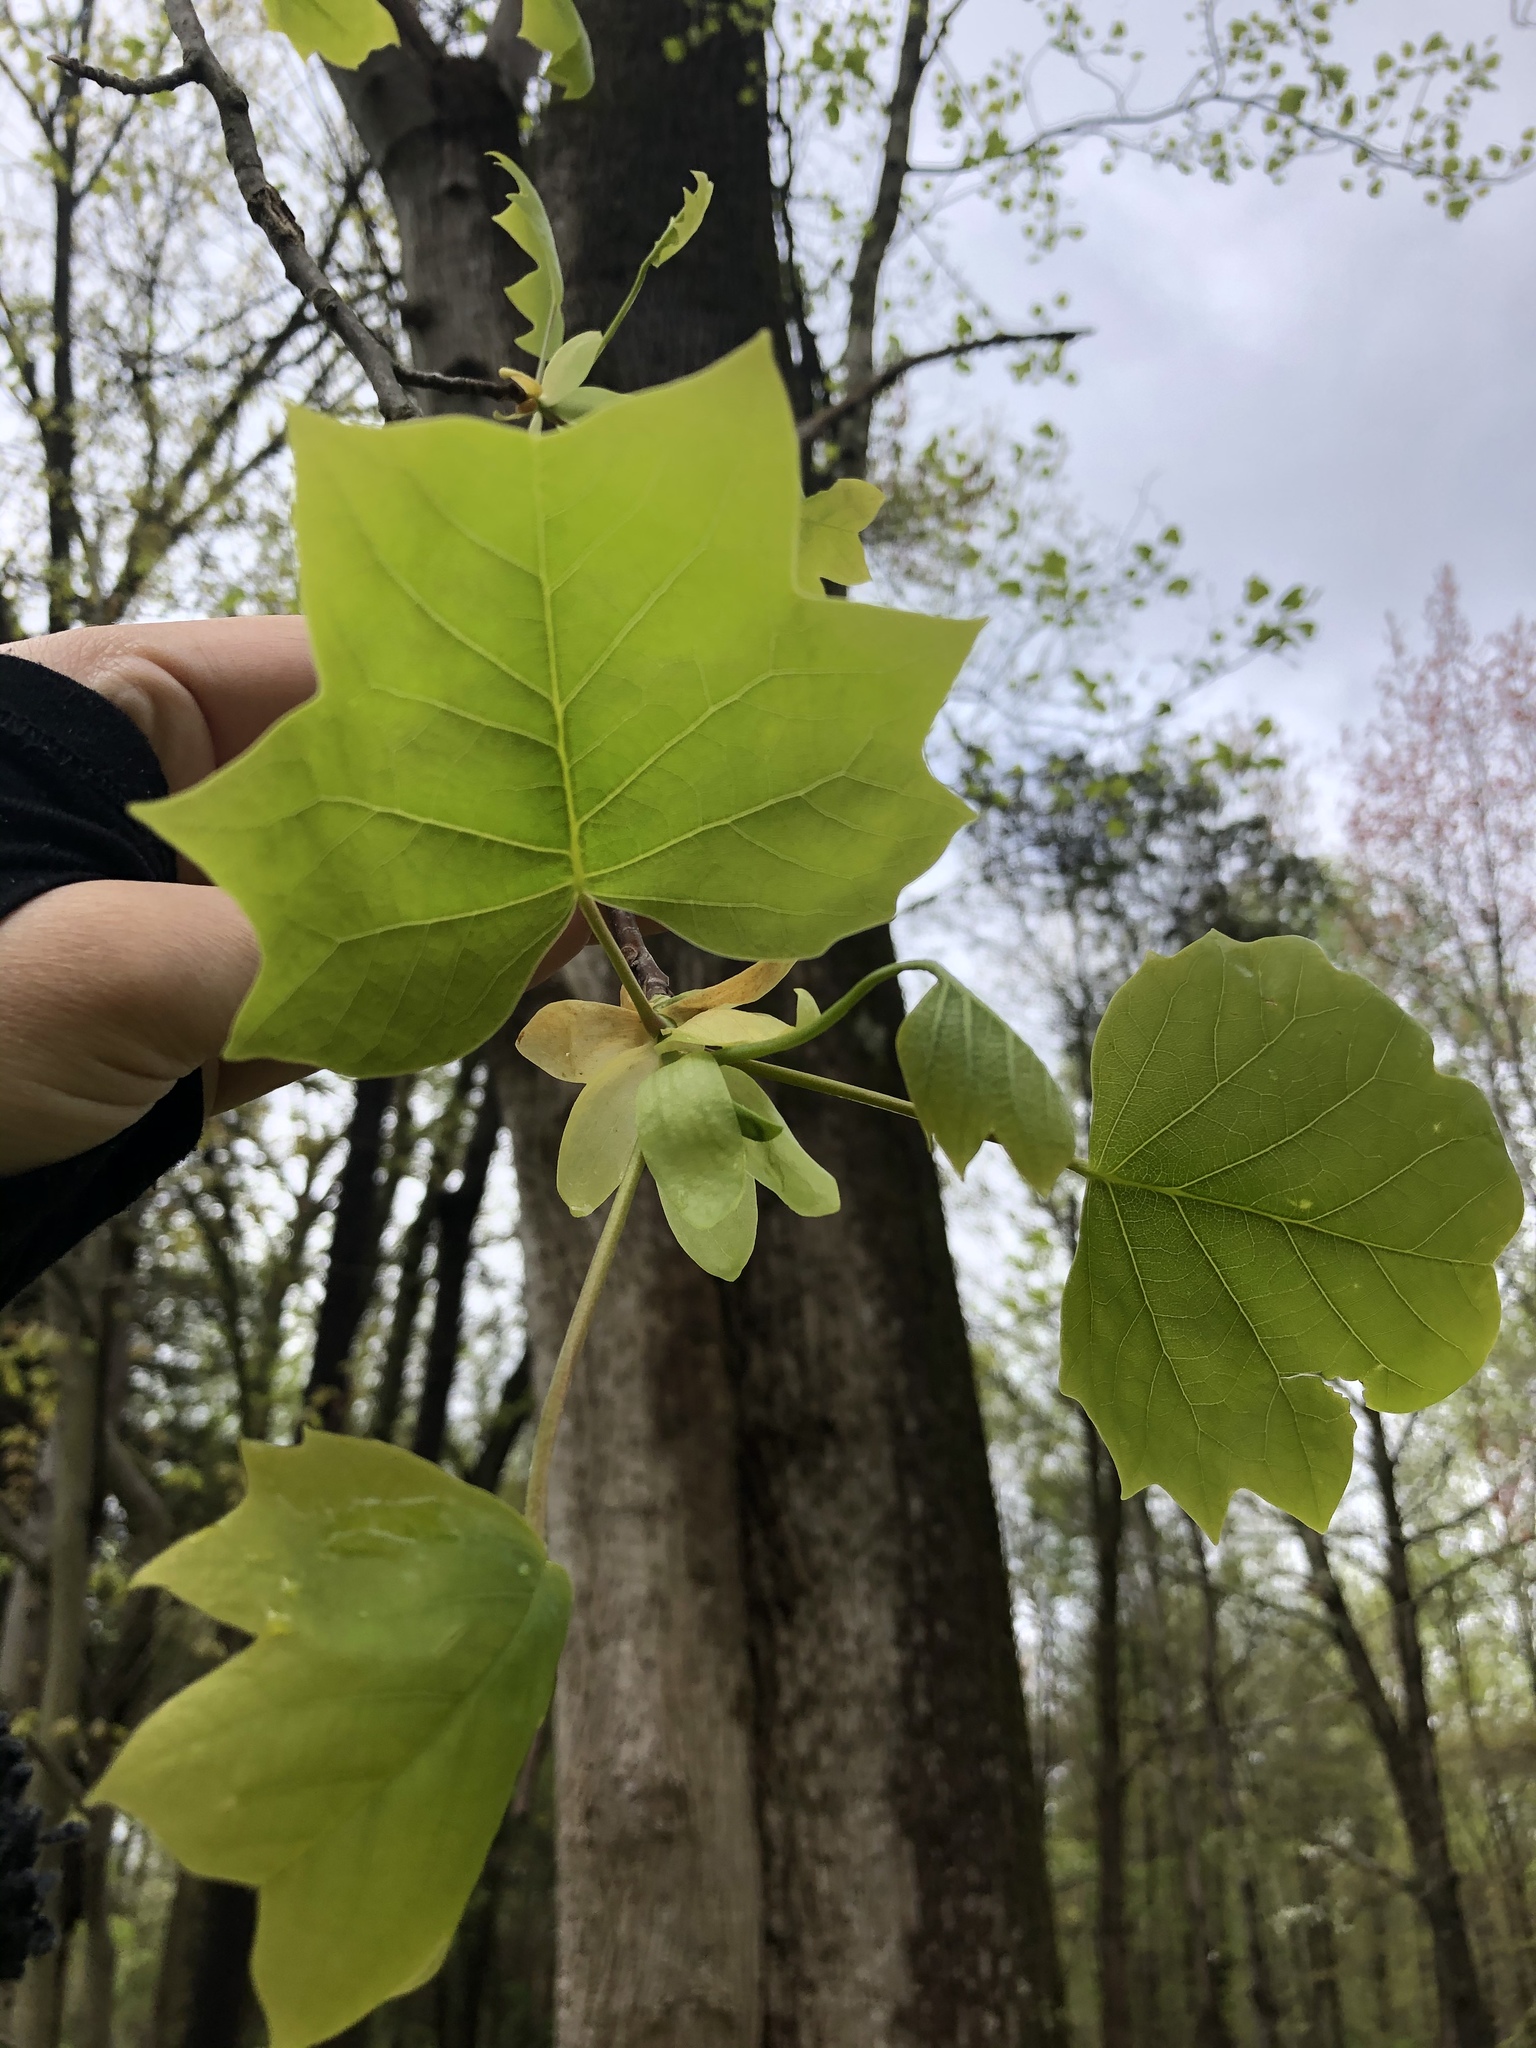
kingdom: Plantae
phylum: Tracheophyta
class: Magnoliopsida
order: Magnoliales
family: Magnoliaceae
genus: Liriodendron
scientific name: Liriodendron tulipifera
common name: Tulip tree
